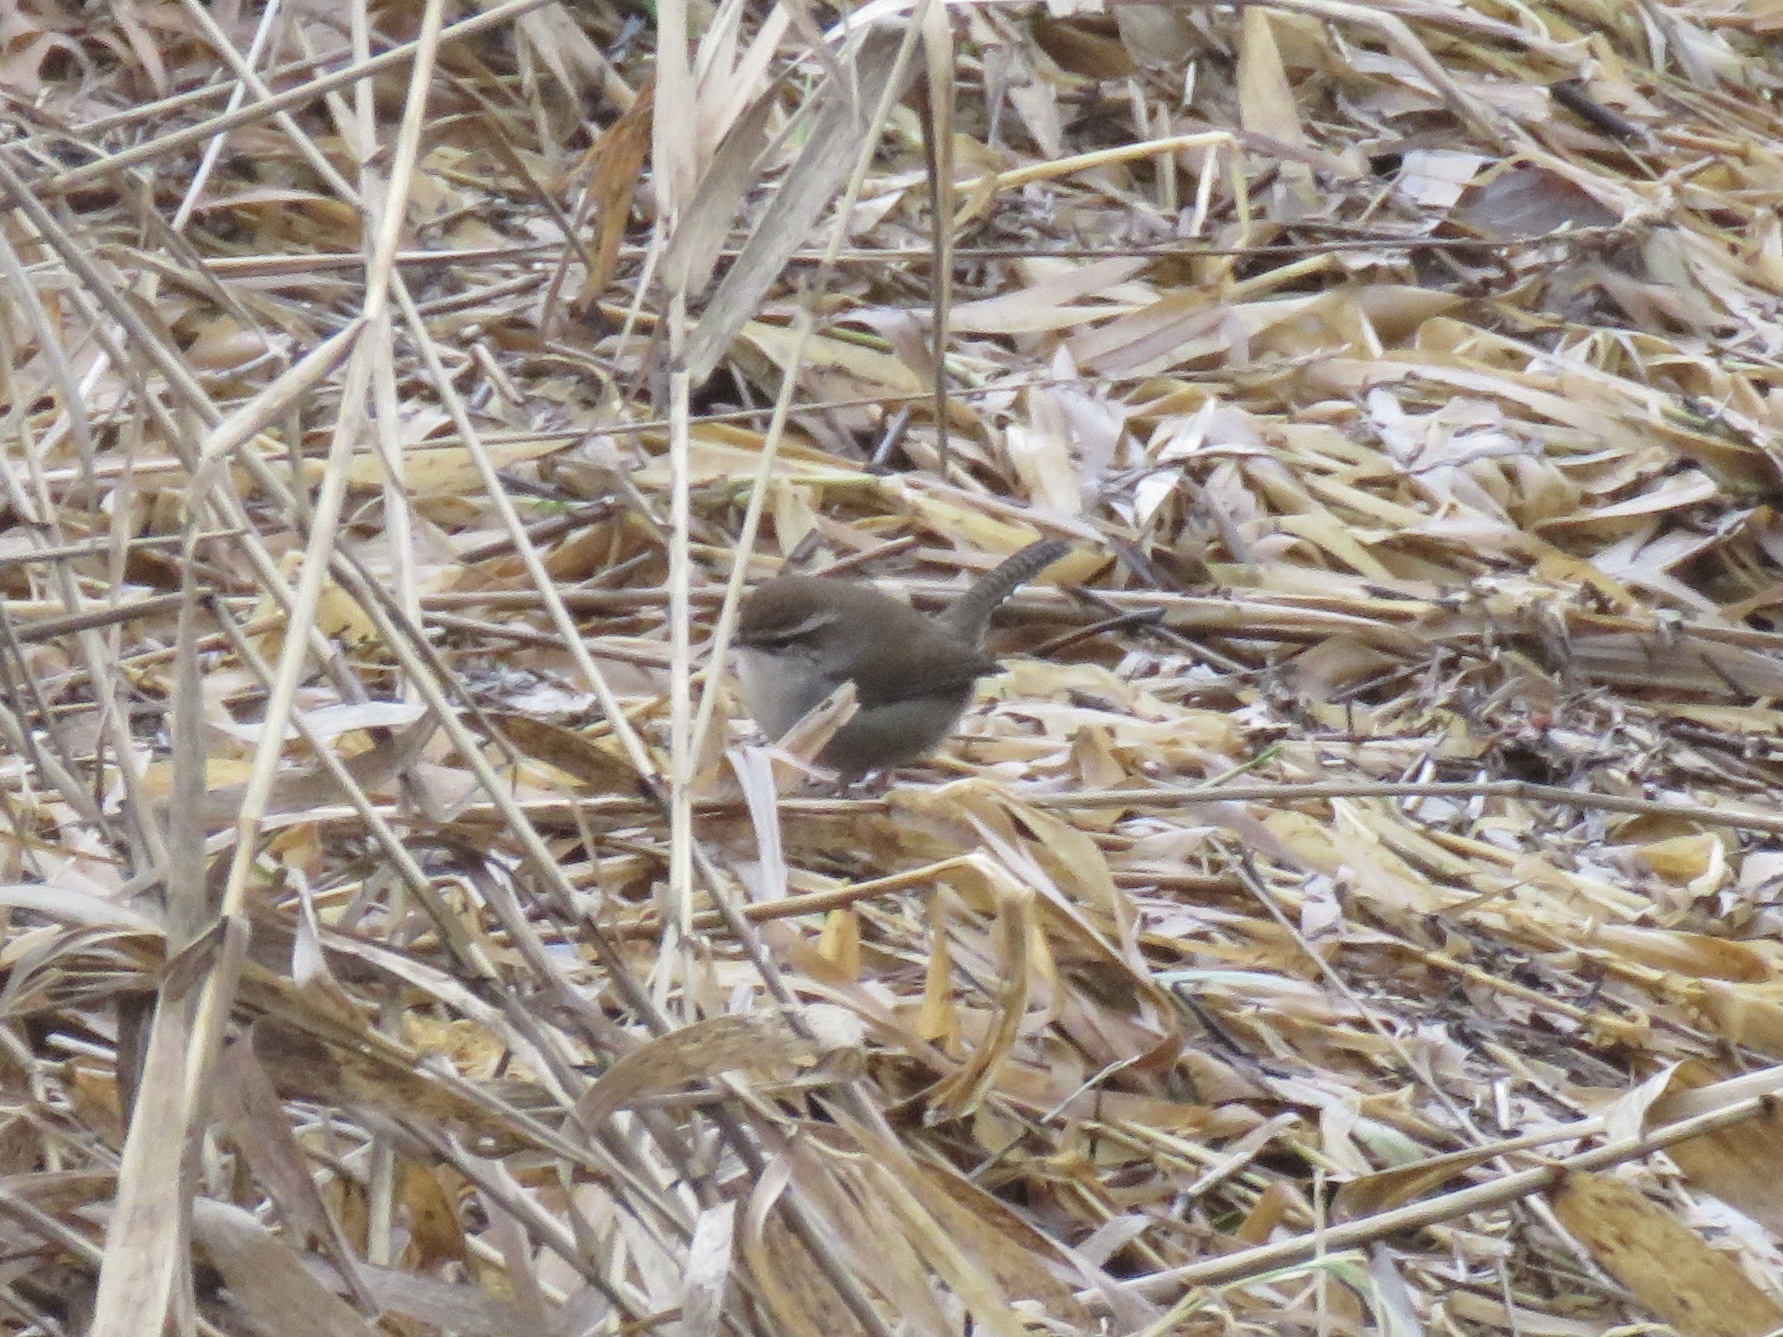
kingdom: Animalia
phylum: Chordata
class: Aves
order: Passeriformes
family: Troglodytidae
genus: Thryomanes
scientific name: Thryomanes bewickii
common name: Bewick's wren
